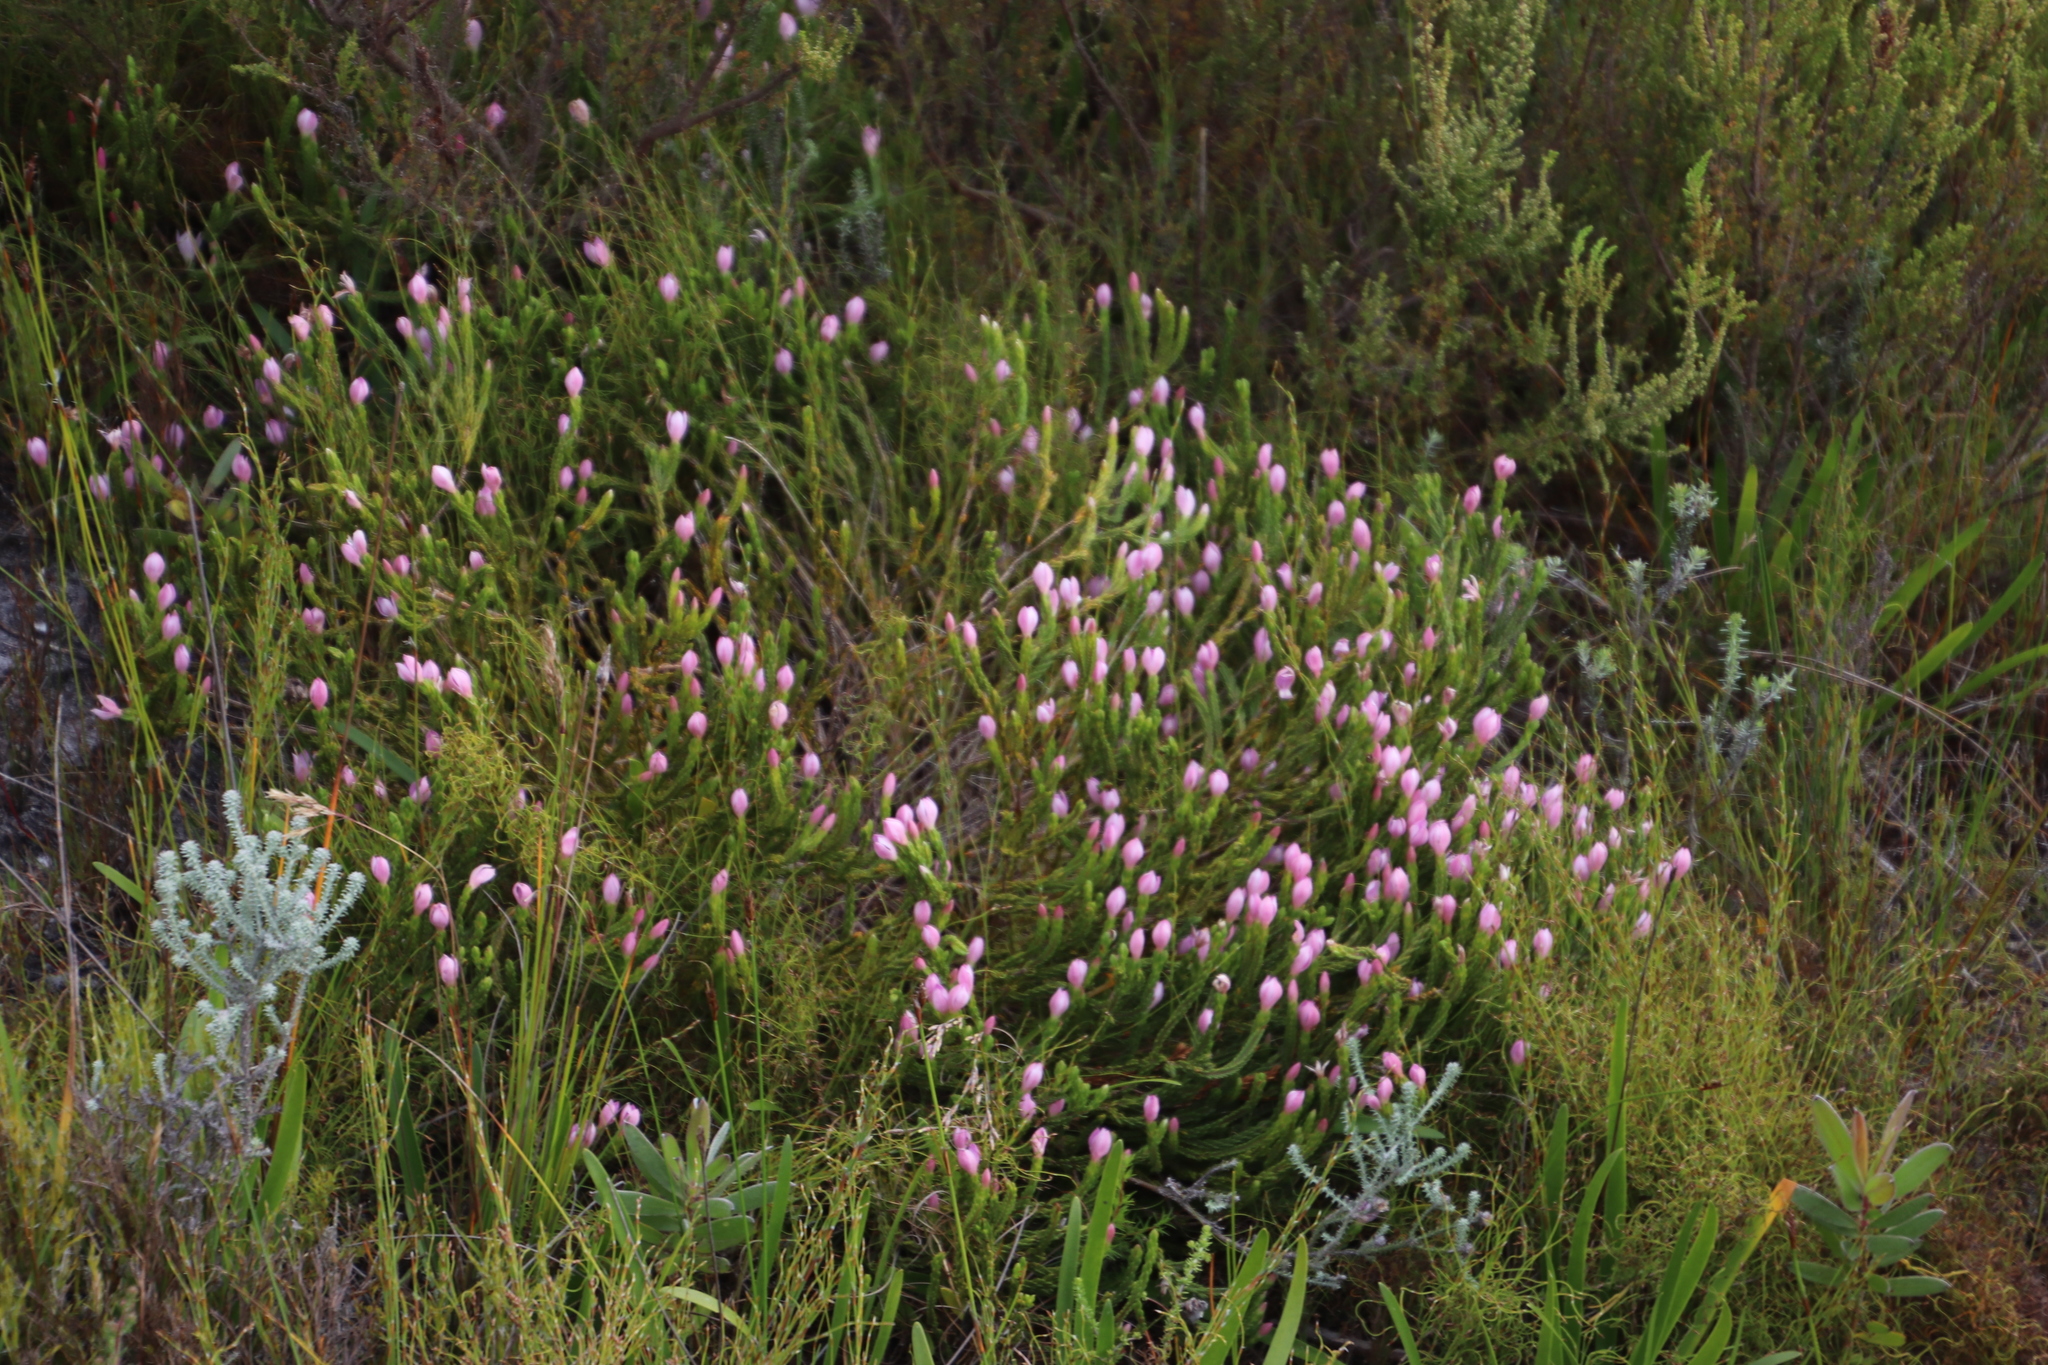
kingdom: Plantae
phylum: Tracheophyta
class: Magnoliopsida
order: Malvales
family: Thymelaeaceae
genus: Lachnaea
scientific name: Lachnaea grandiflora
